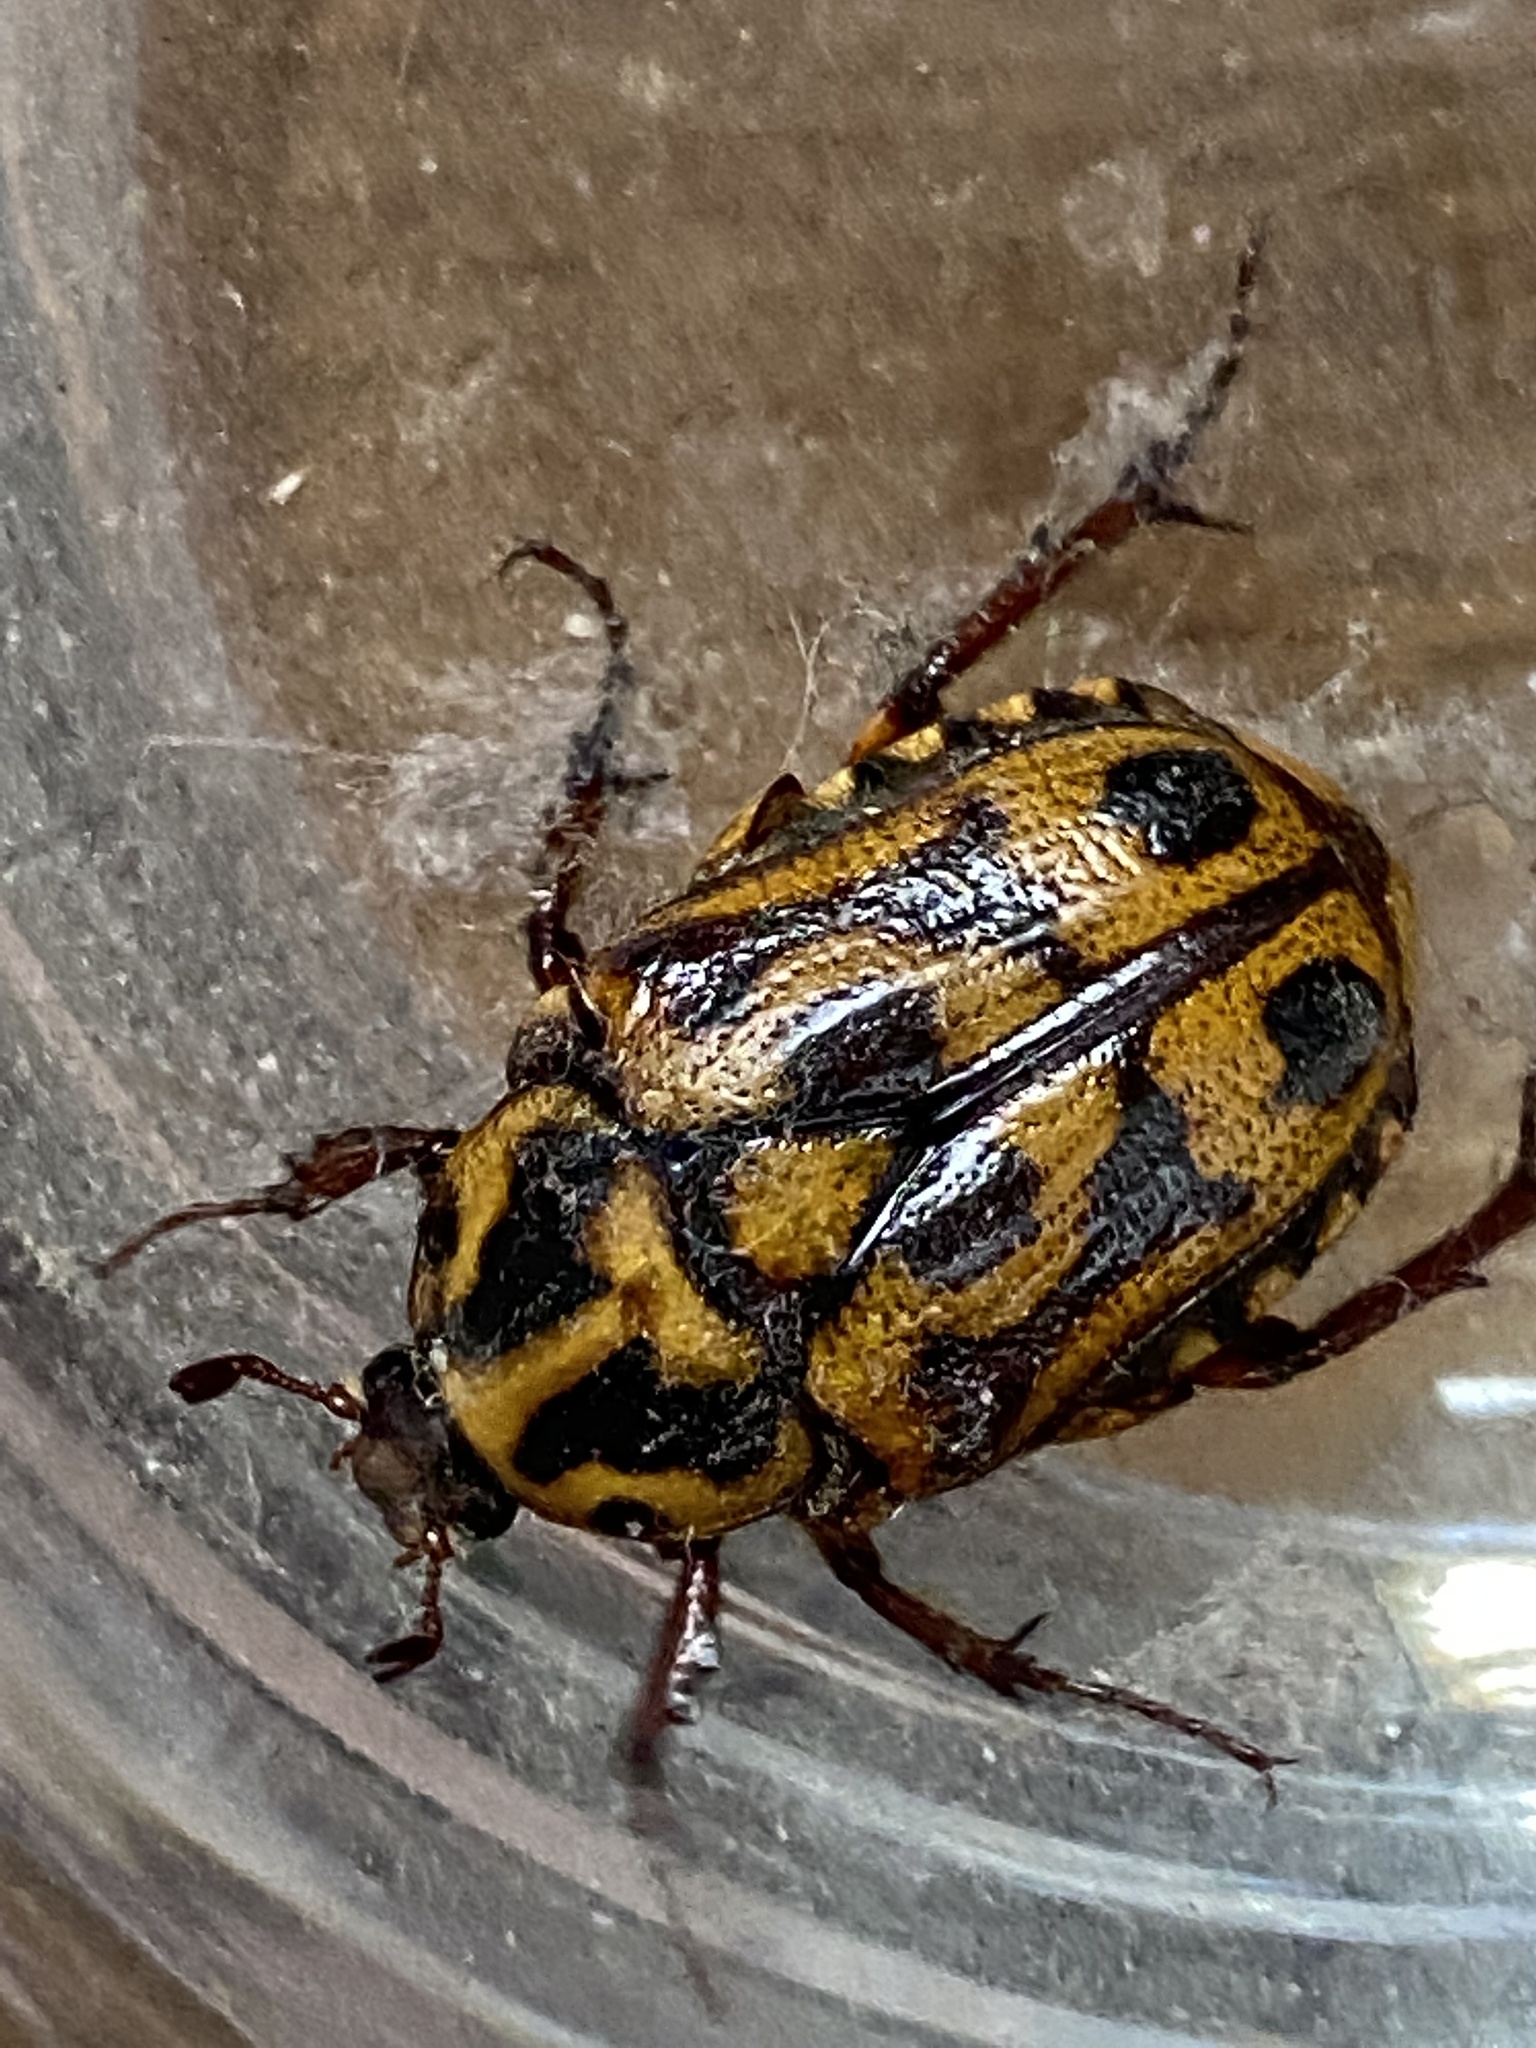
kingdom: Animalia
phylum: Arthropoda
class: Insecta
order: Coleoptera
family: Scarabaeidae
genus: Lyraphora
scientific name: Lyraphora obliquata
